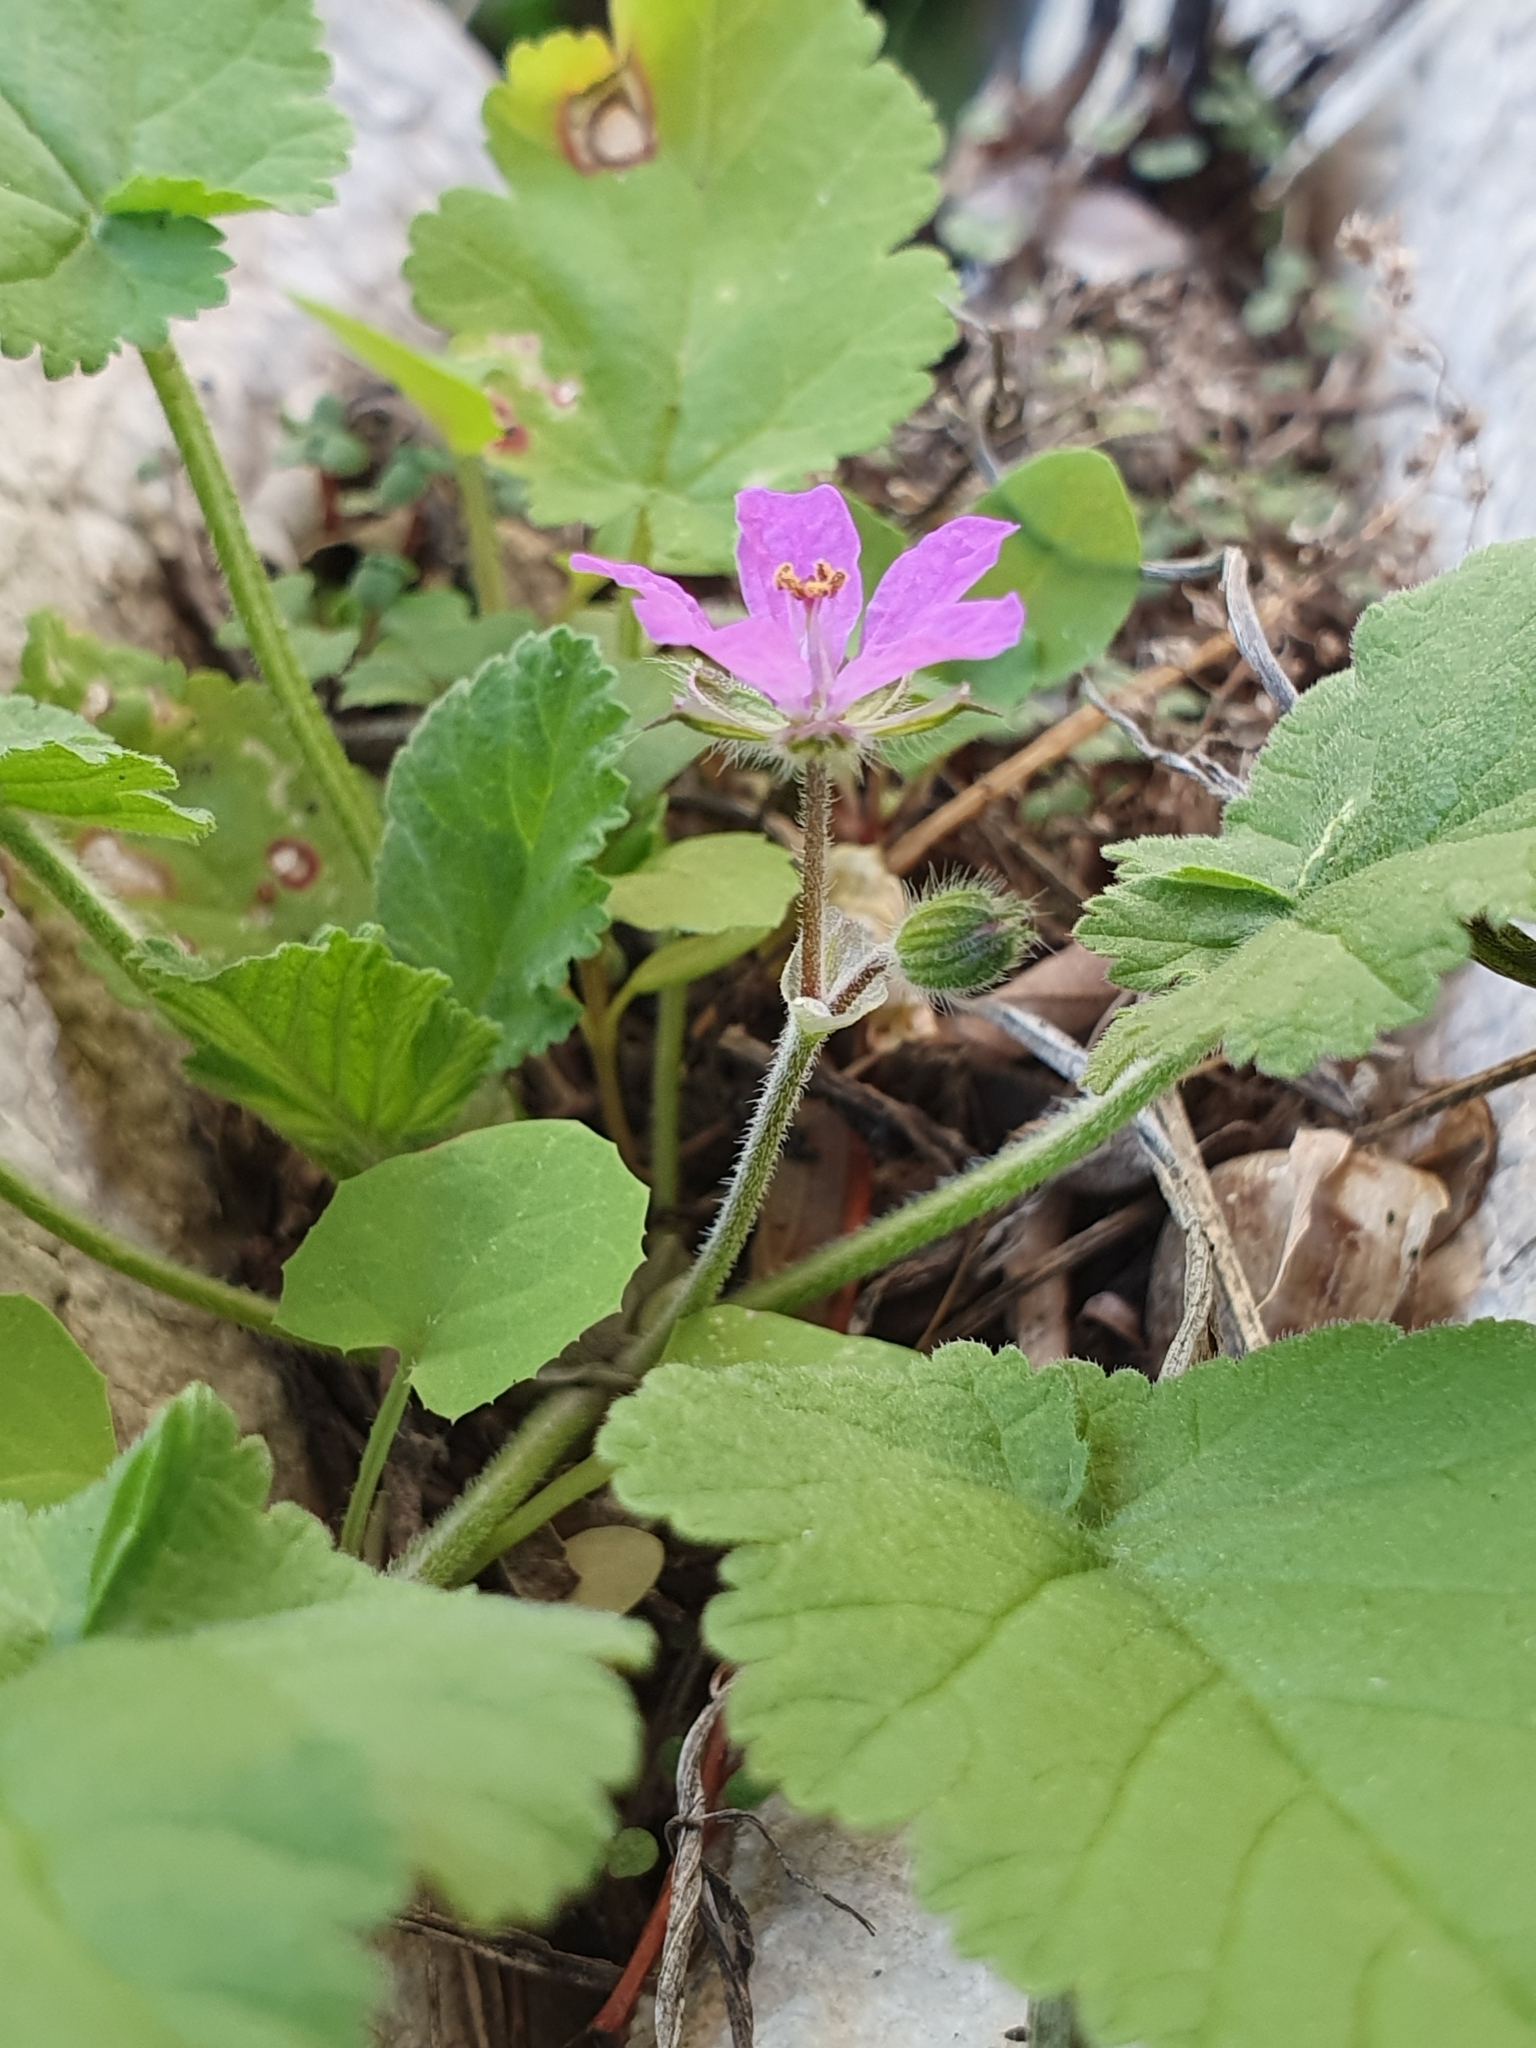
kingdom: Plantae
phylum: Tracheophyta
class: Magnoliopsida
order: Geraniales
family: Geraniaceae
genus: Erodium
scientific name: Erodium malacoides
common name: Soft stork's-bill
